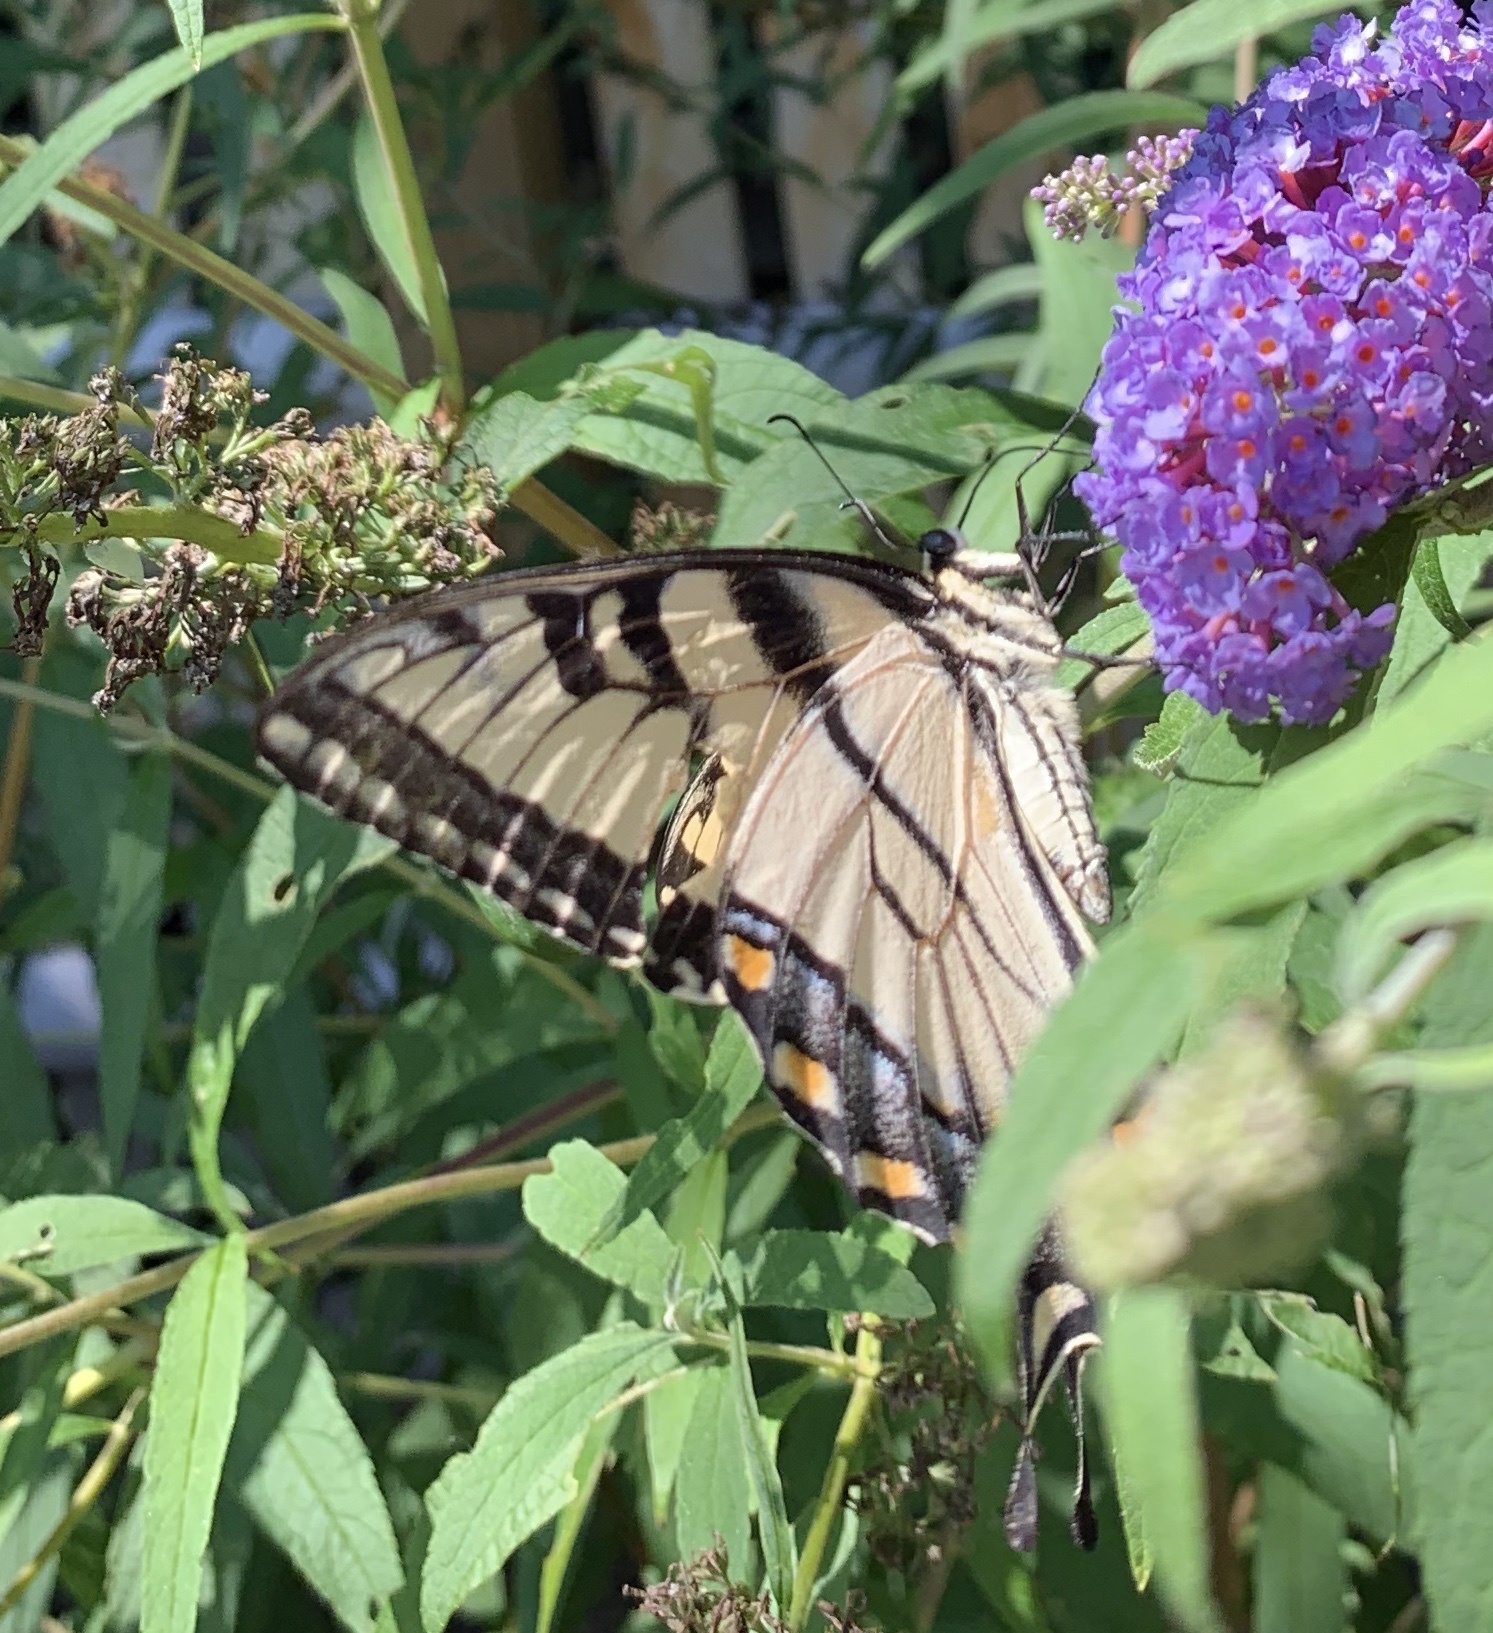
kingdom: Animalia
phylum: Arthropoda
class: Insecta
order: Lepidoptera
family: Papilionidae
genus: Papilio
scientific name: Papilio glaucus
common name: Tiger swallowtail
